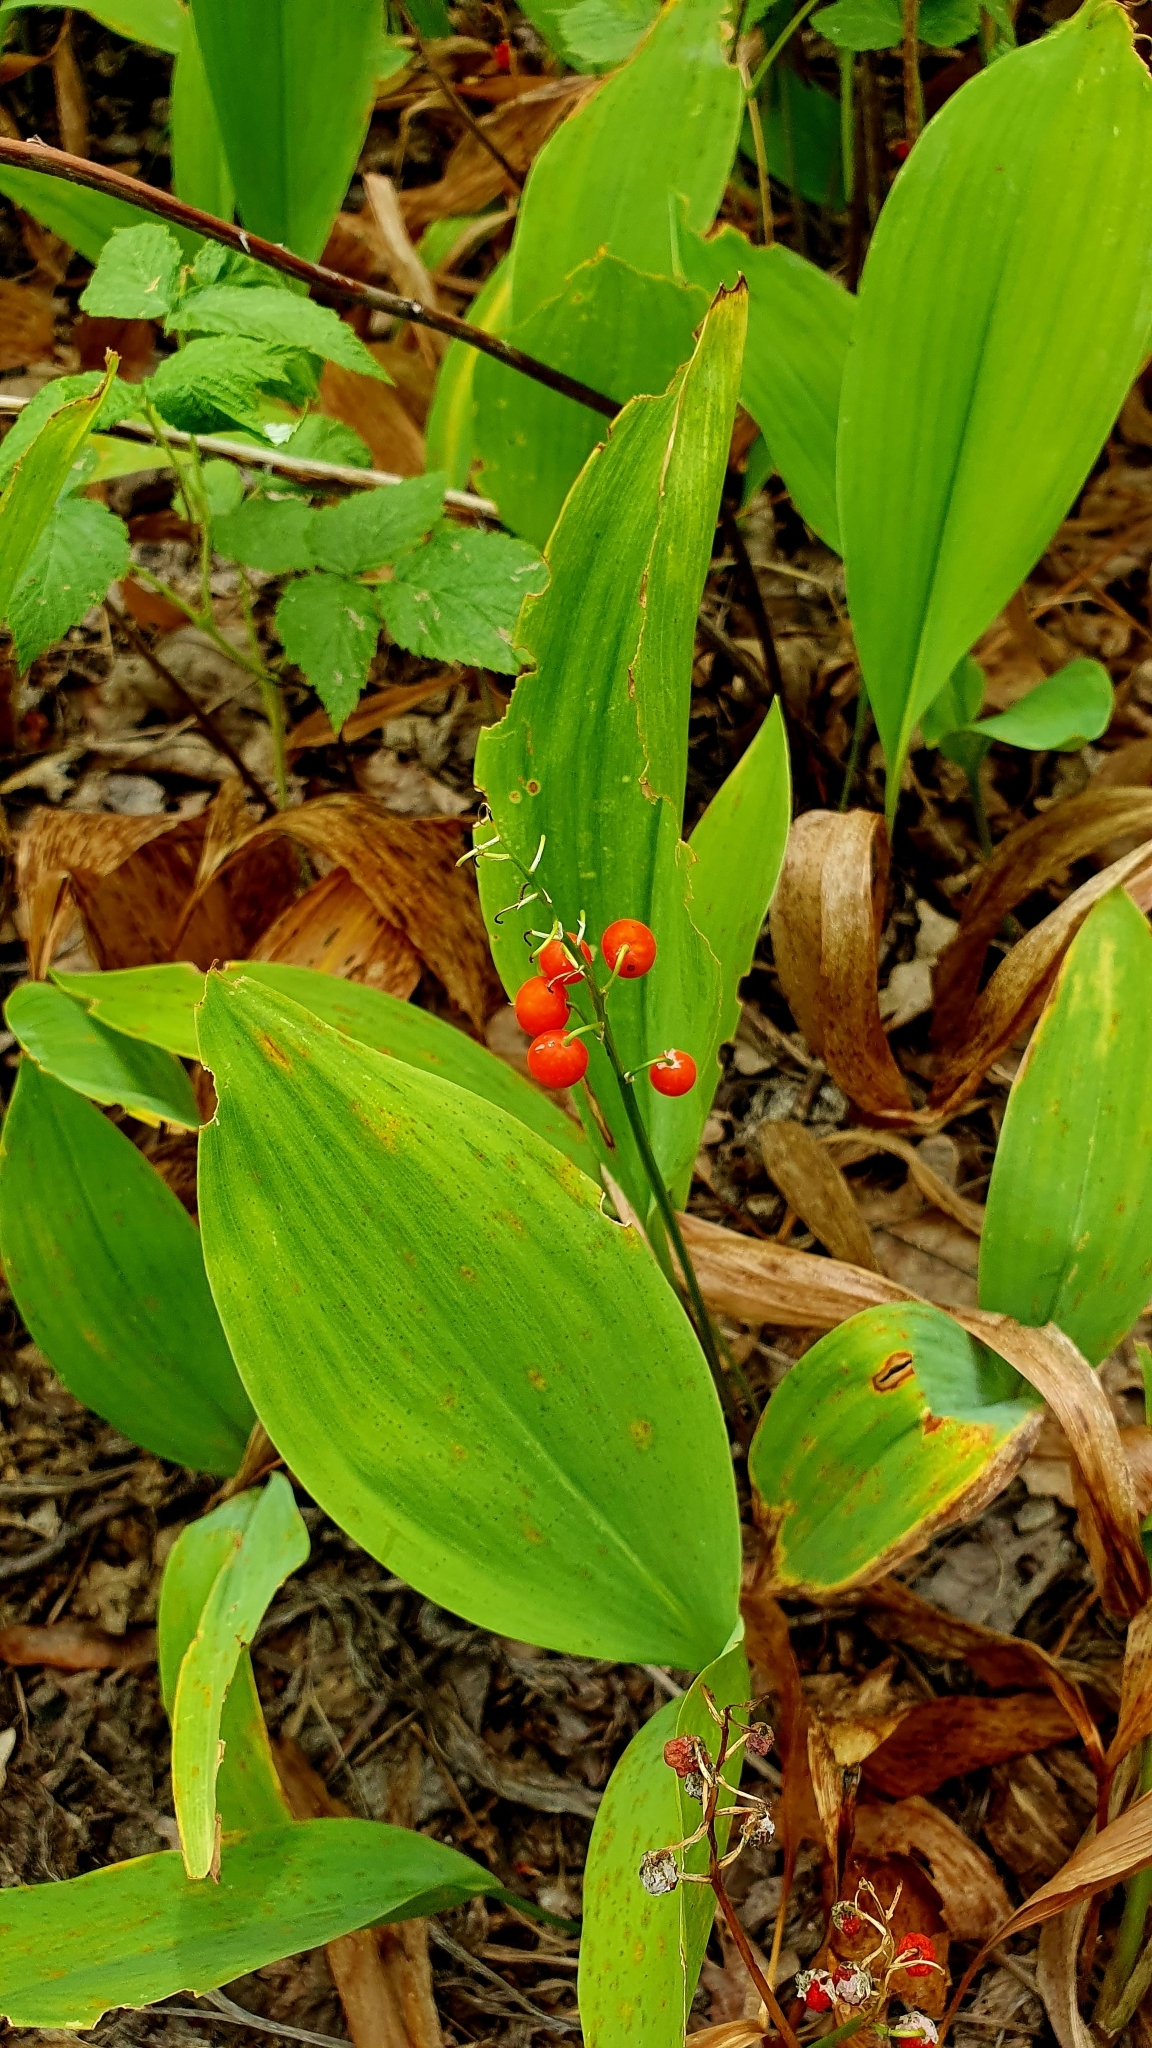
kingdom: Plantae
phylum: Tracheophyta
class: Liliopsida
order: Asparagales
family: Asparagaceae
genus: Convallaria
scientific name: Convallaria majalis
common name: Lily-of-the-valley
